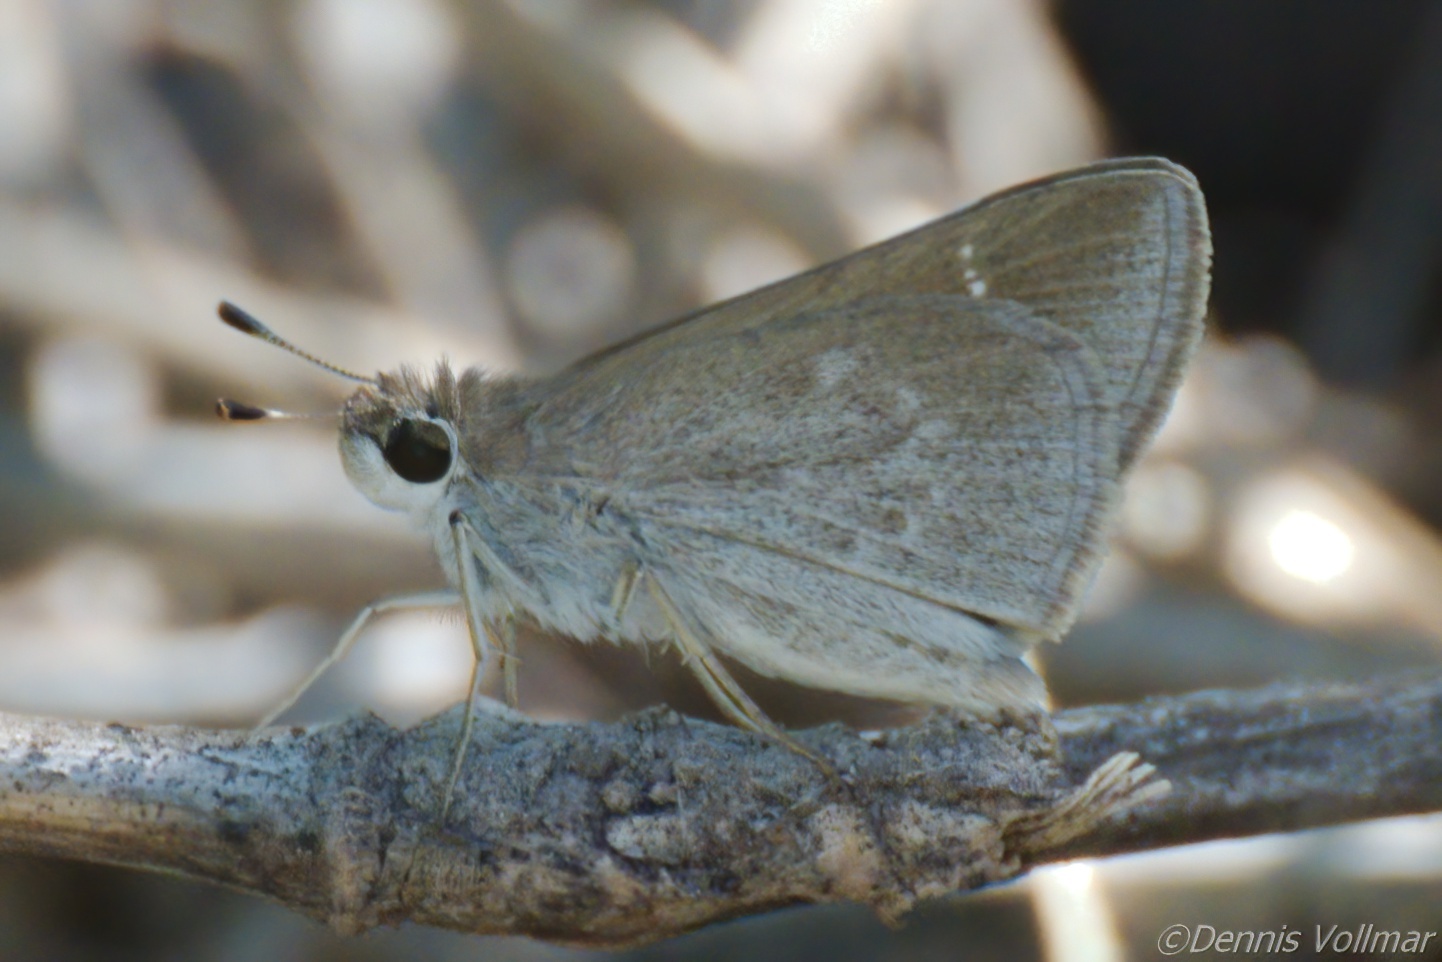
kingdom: Animalia
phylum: Arthropoda
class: Insecta
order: Lepidoptera
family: Hesperiidae
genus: Lerodea
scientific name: Lerodea eufala
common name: Eufala skipper
